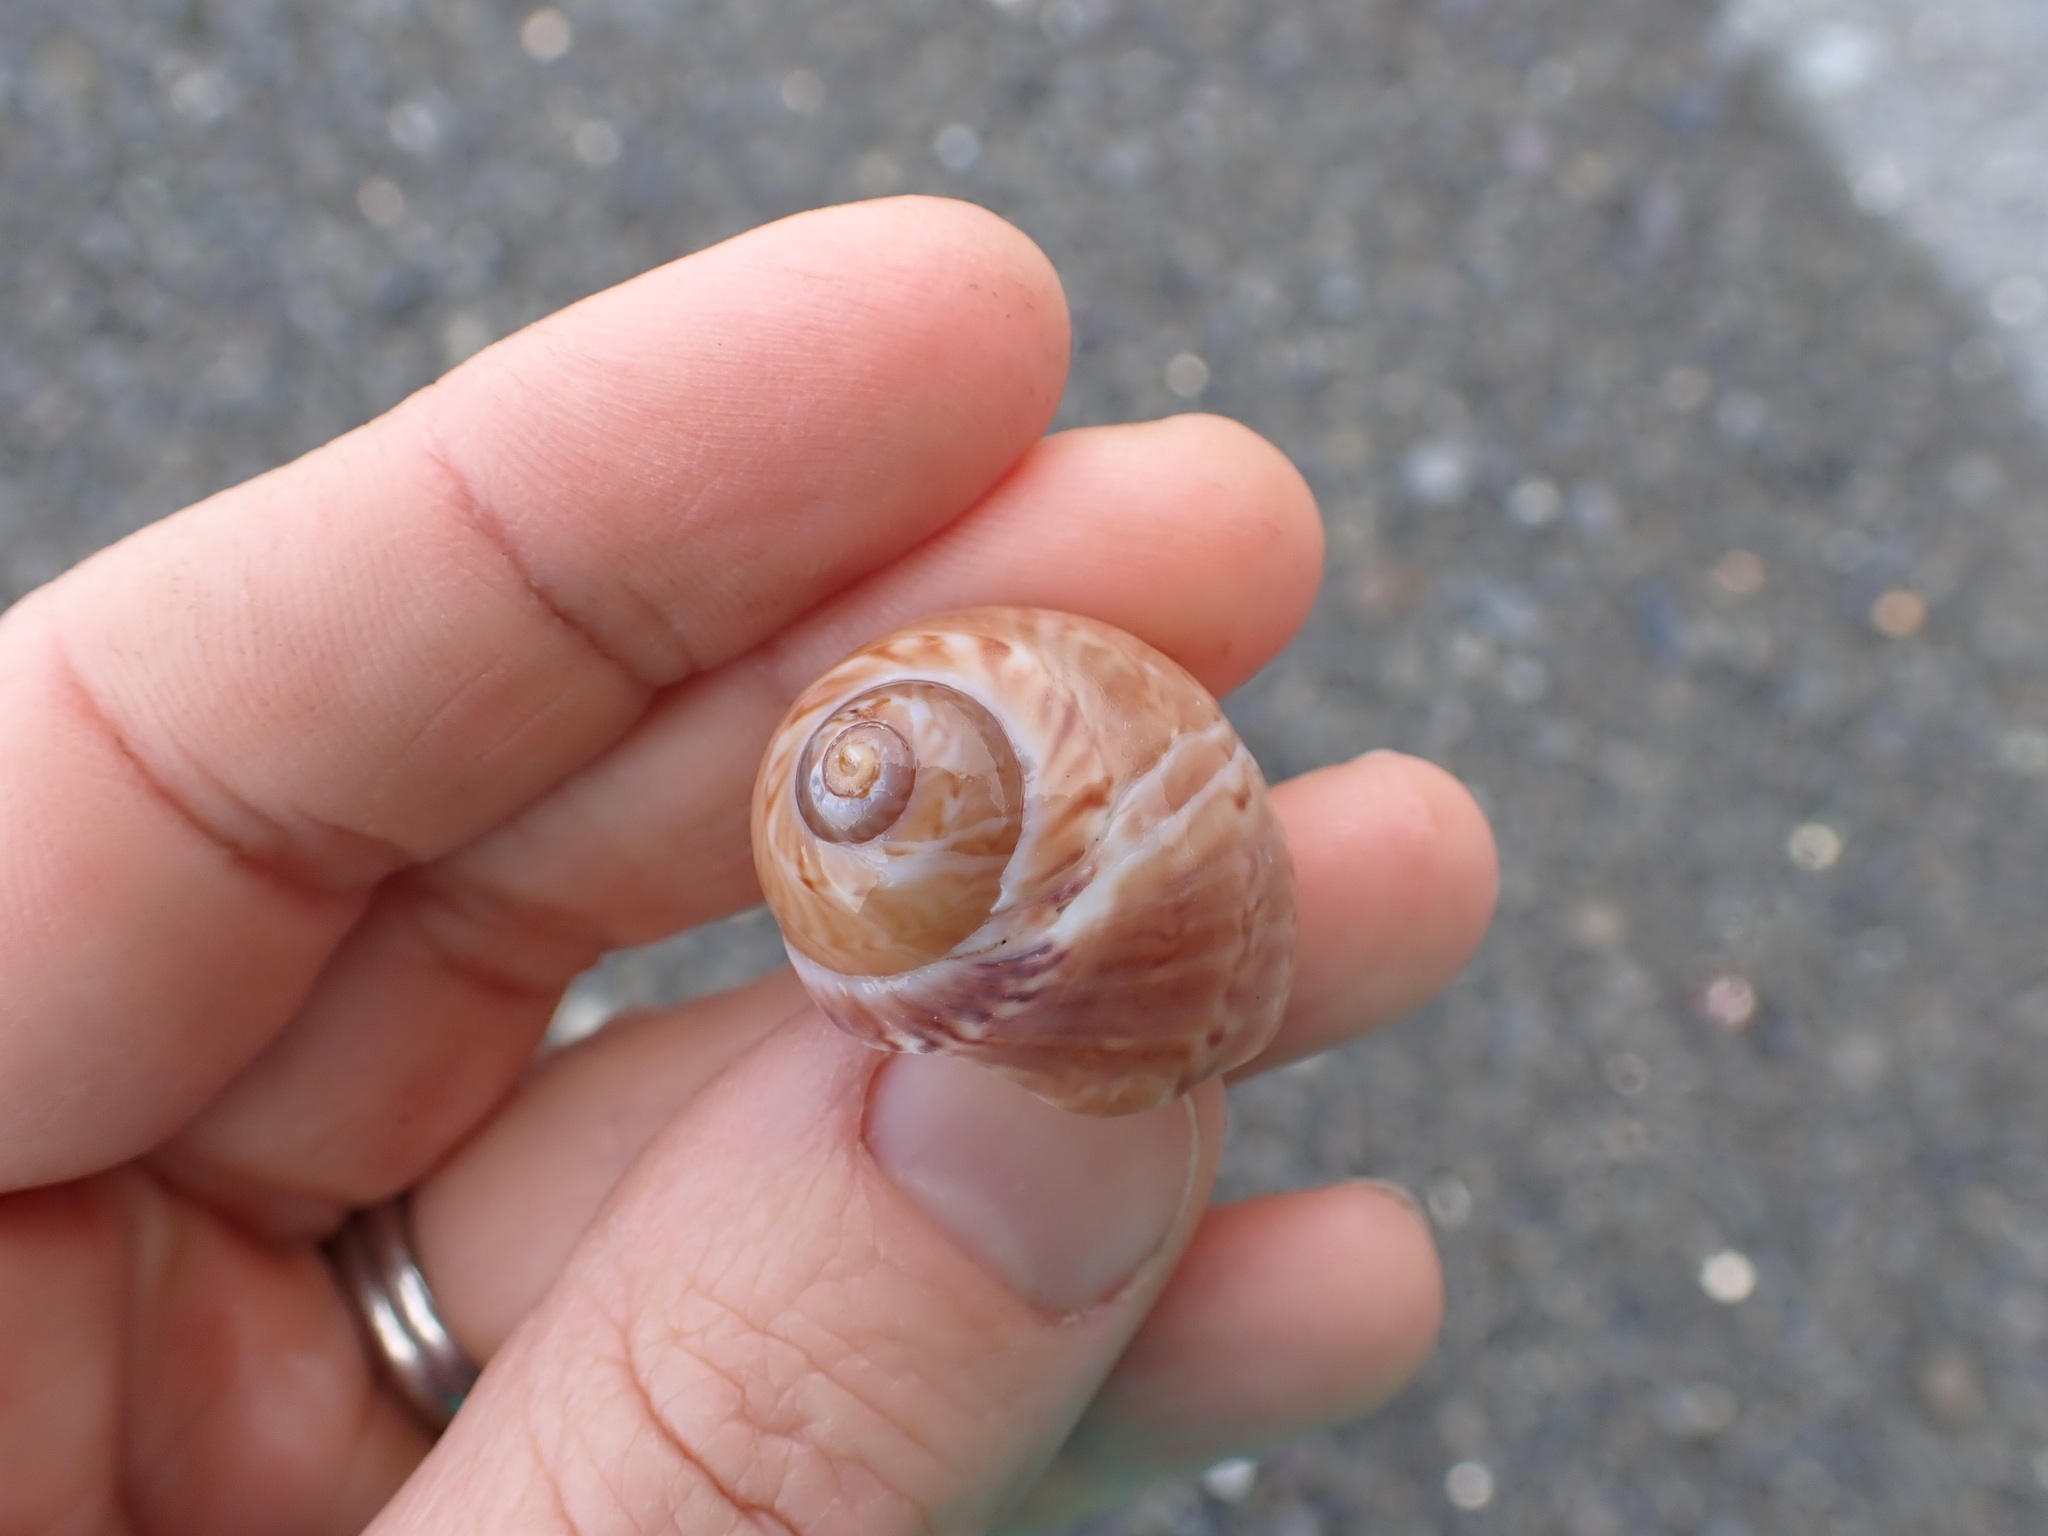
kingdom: Animalia
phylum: Mollusca
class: Gastropoda
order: Littorinimorpha
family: Naticidae
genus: Tanea
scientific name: Tanea zelandica
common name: New zealand moonsnail
